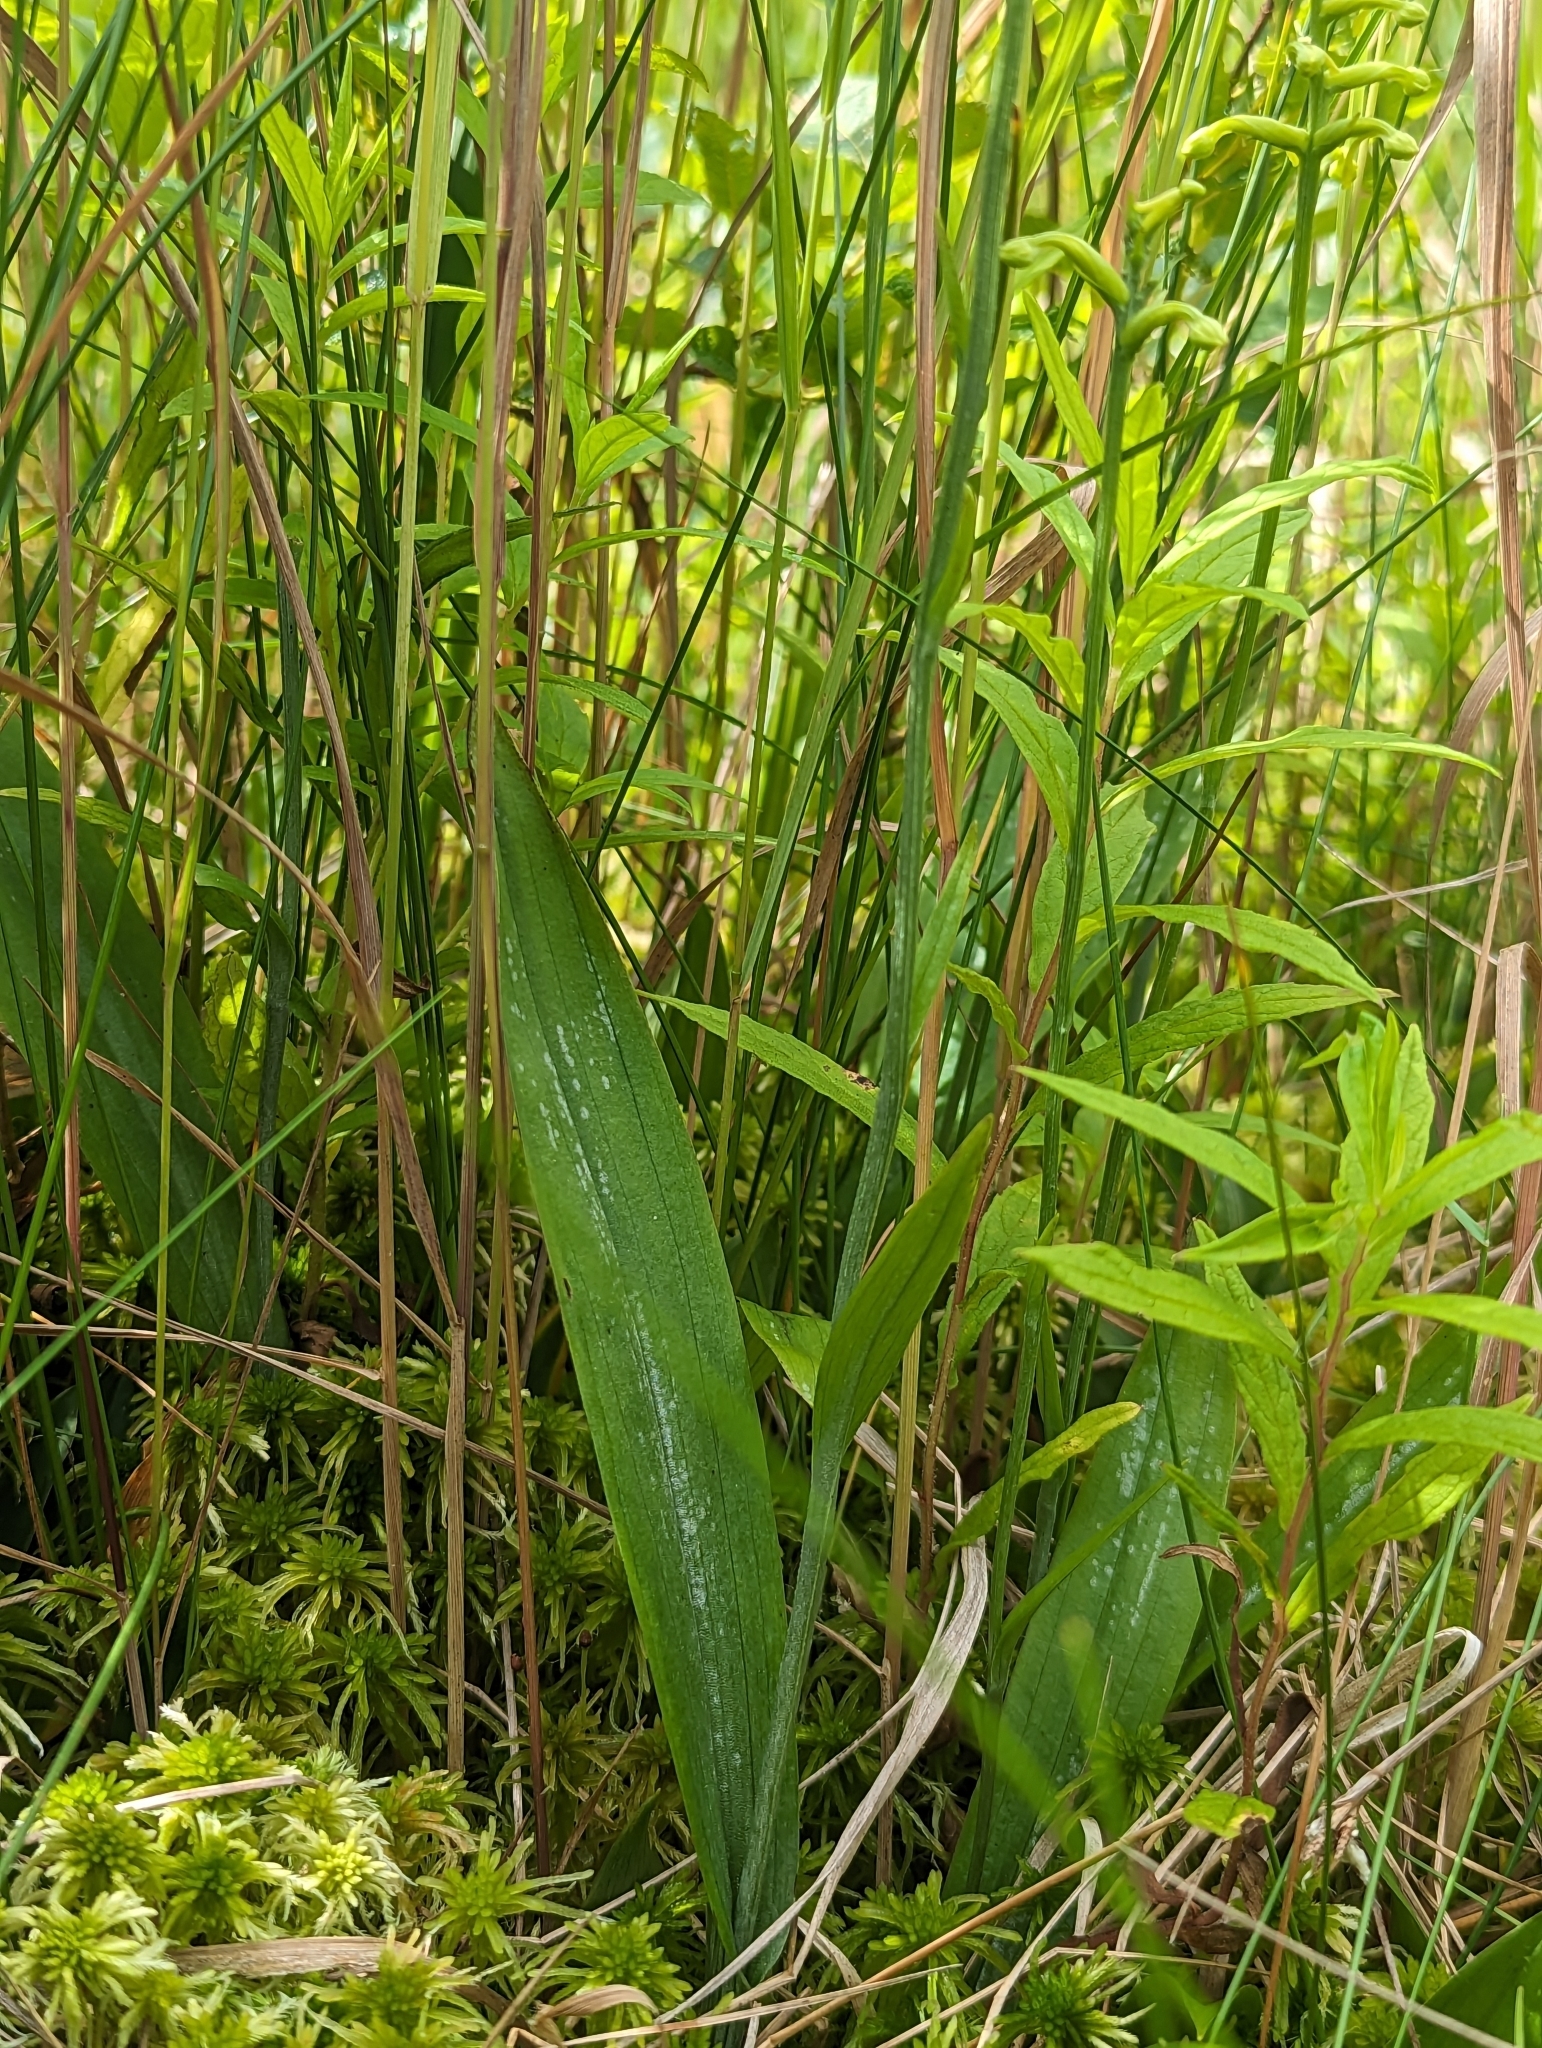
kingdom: Plantae
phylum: Tracheophyta
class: Liliopsida
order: Asparagales
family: Orchidaceae
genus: Platanthera
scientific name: Platanthera clavellata
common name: Club-spur orchid
